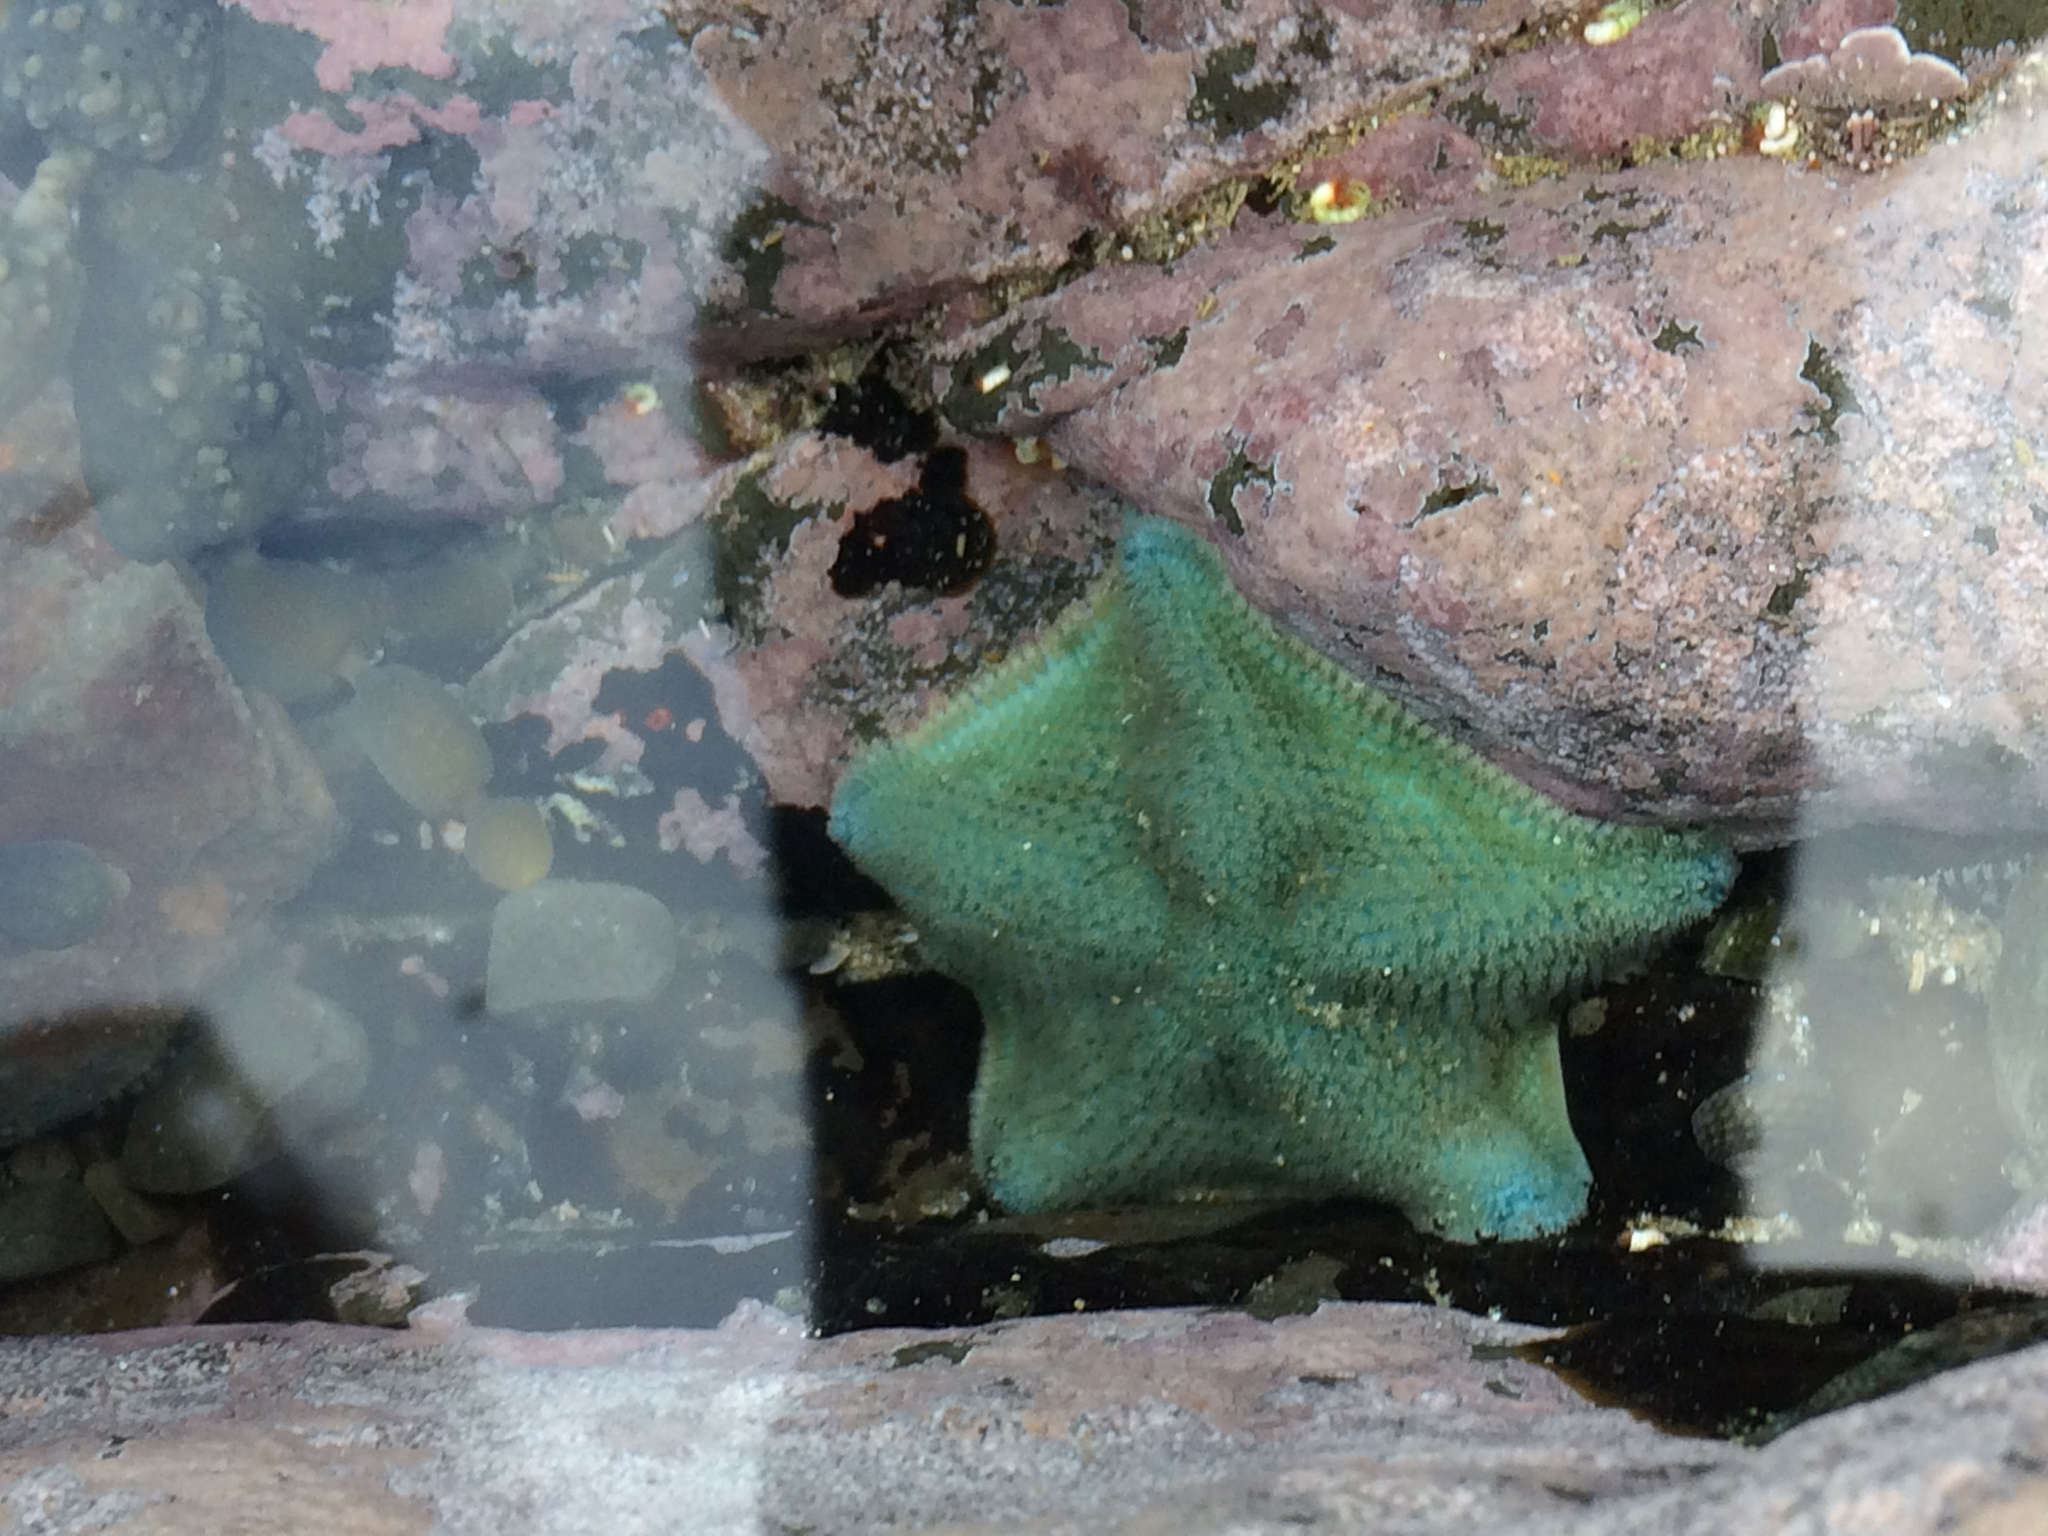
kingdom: Animalia
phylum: Echinodermata
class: Asteroidea
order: Valvatida
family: Asterinidae
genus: Patiriella
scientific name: Patiriella regularis
